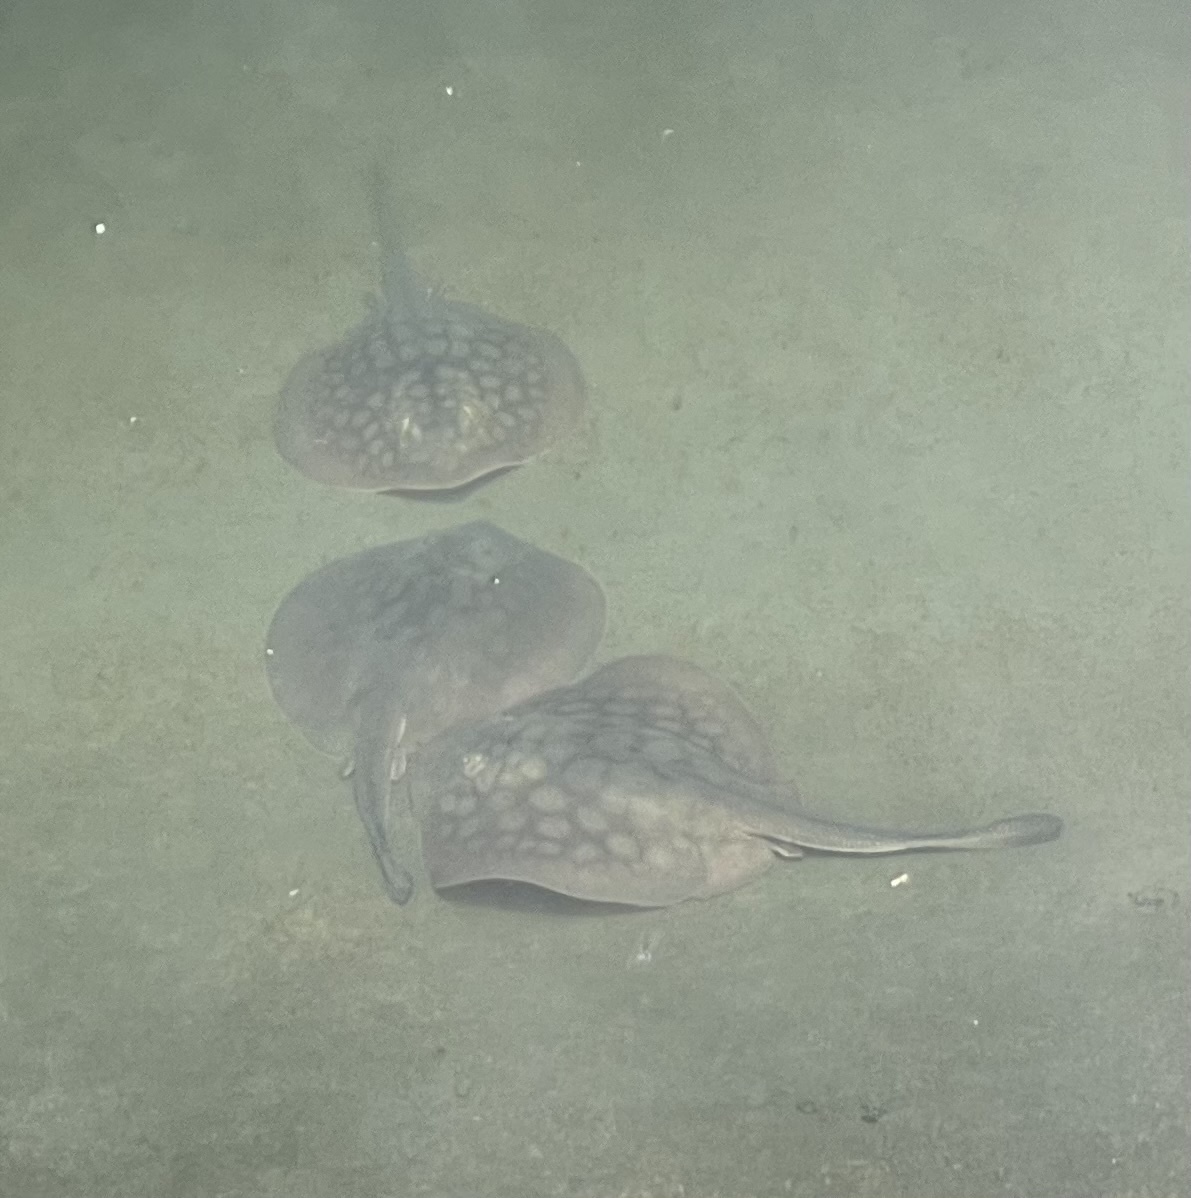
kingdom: Animalia
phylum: Chordata
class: Elasmobranchii
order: Myliobatiformes
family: Urolophidae
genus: Urolophus
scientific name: Urolophus halleri
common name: Round stingray
